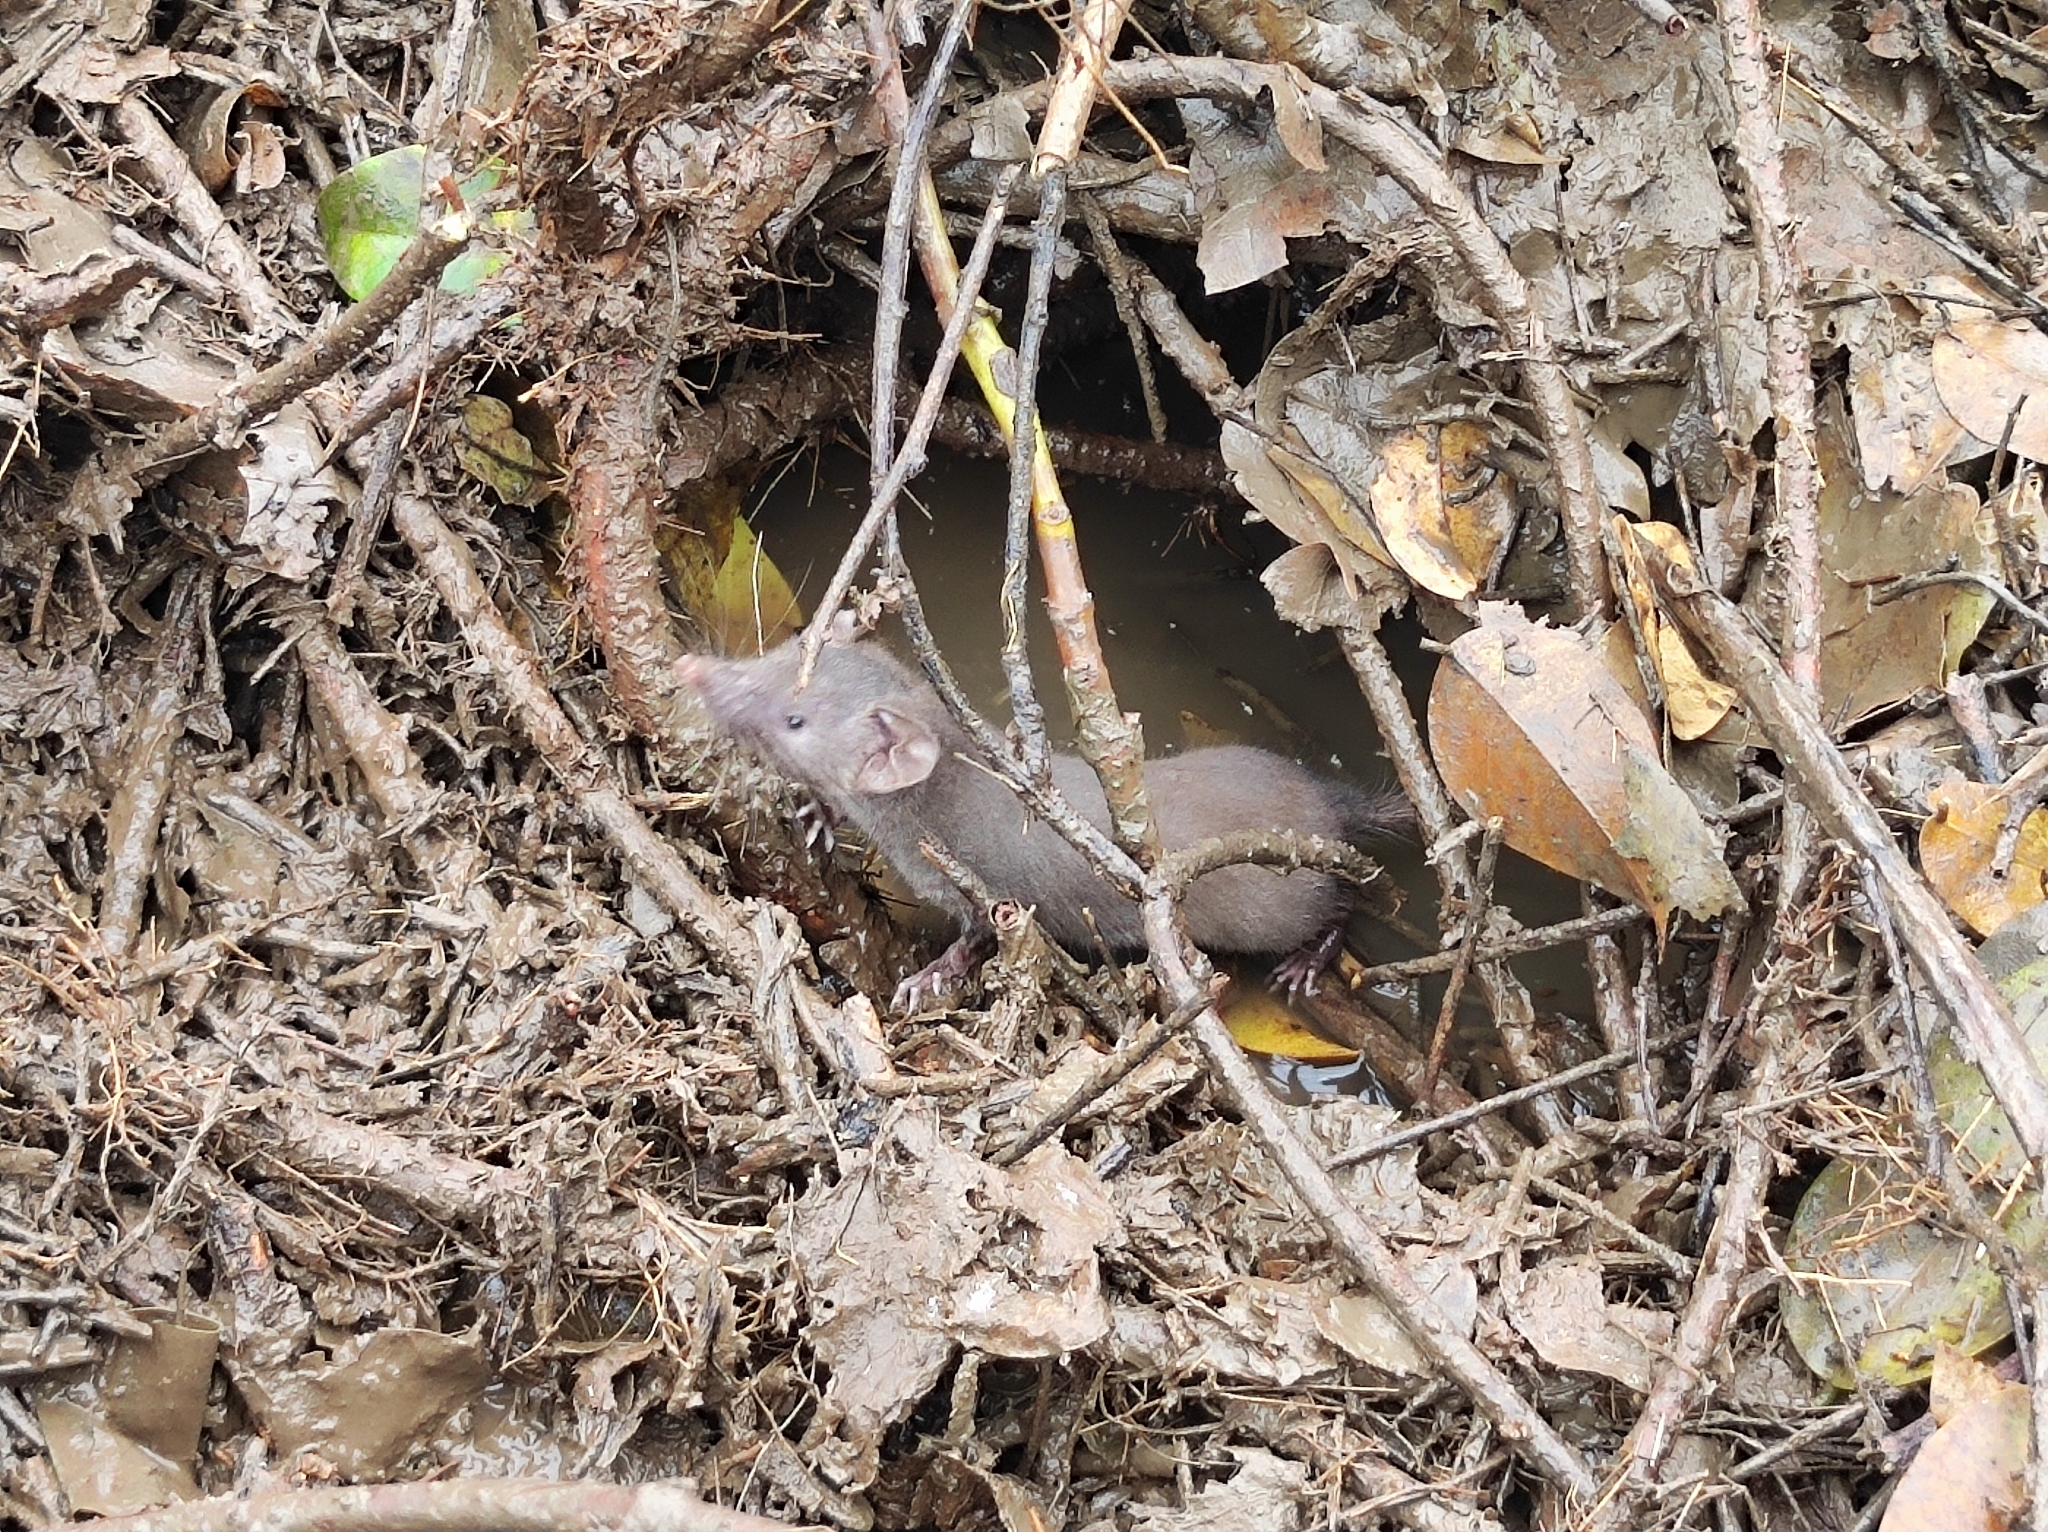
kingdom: Animalia
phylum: Chordata
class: Mammalia
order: Soricomorpha
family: Soricidae
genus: Suncus
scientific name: Suncus murinus
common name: Asian house shrew
